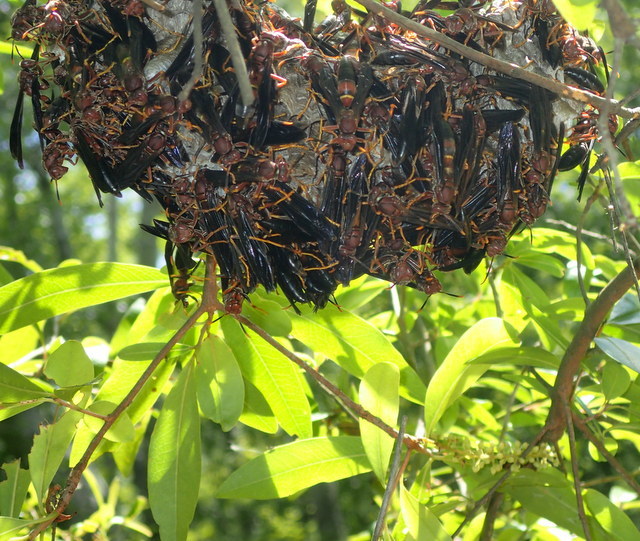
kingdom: Animalia
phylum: Arthropoda
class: Insecta
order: Hymenoptera
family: Eumenidae
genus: Polistes
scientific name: Polistes annularis
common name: Ringed paper wasp
